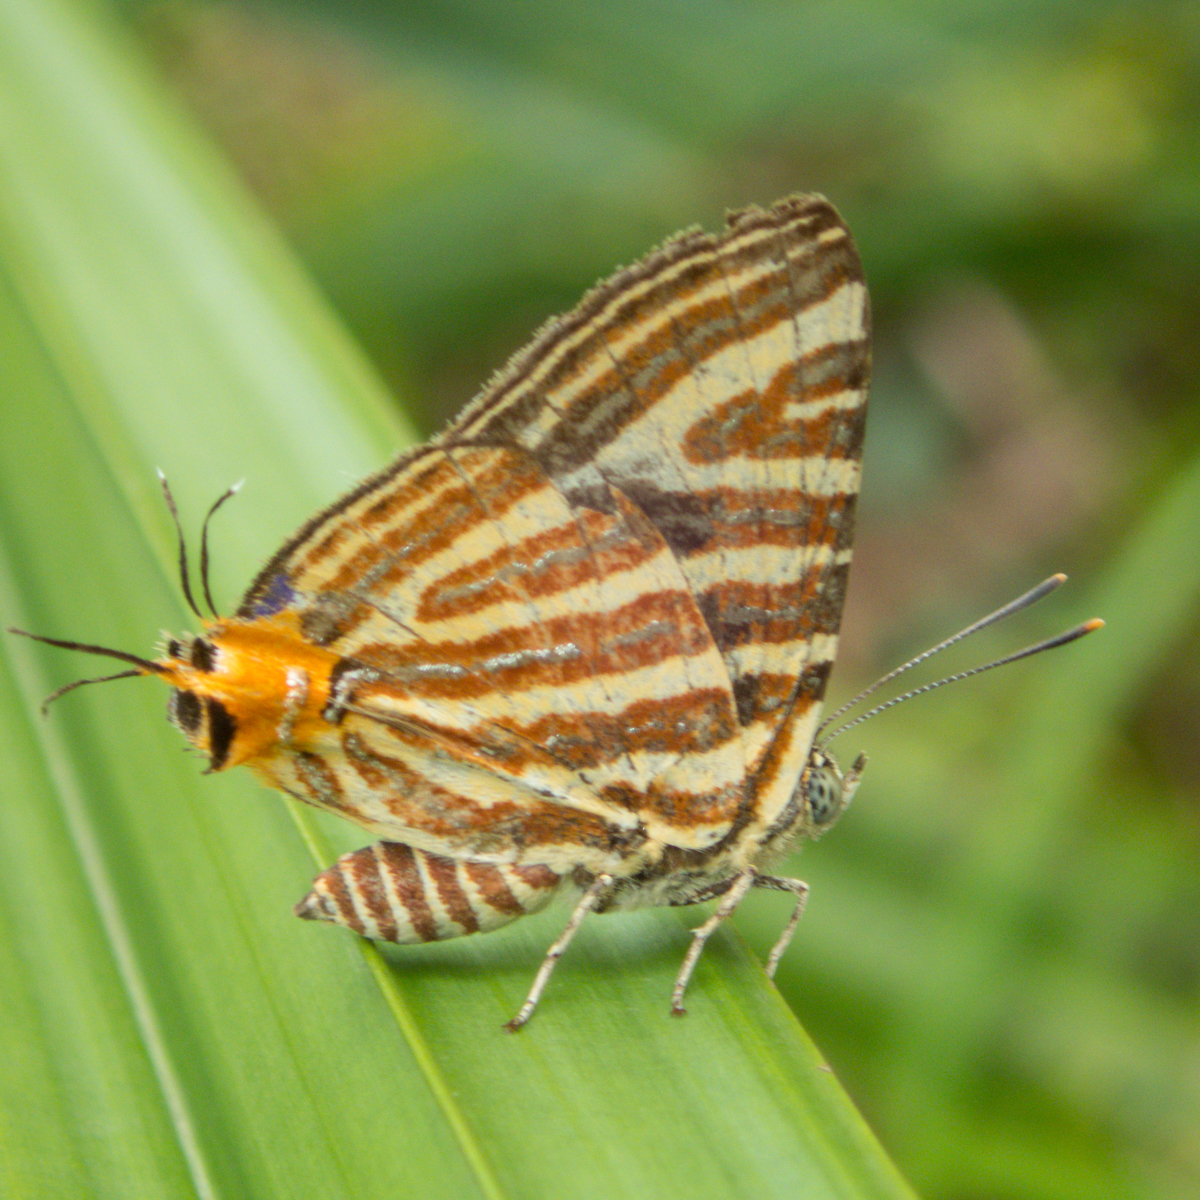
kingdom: Animalia
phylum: Arthropoda
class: Insecta
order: Lepidoptera
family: Lycaenidae
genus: Cigaritis
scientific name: Cigaritis lohita
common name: Long-banded silverline
